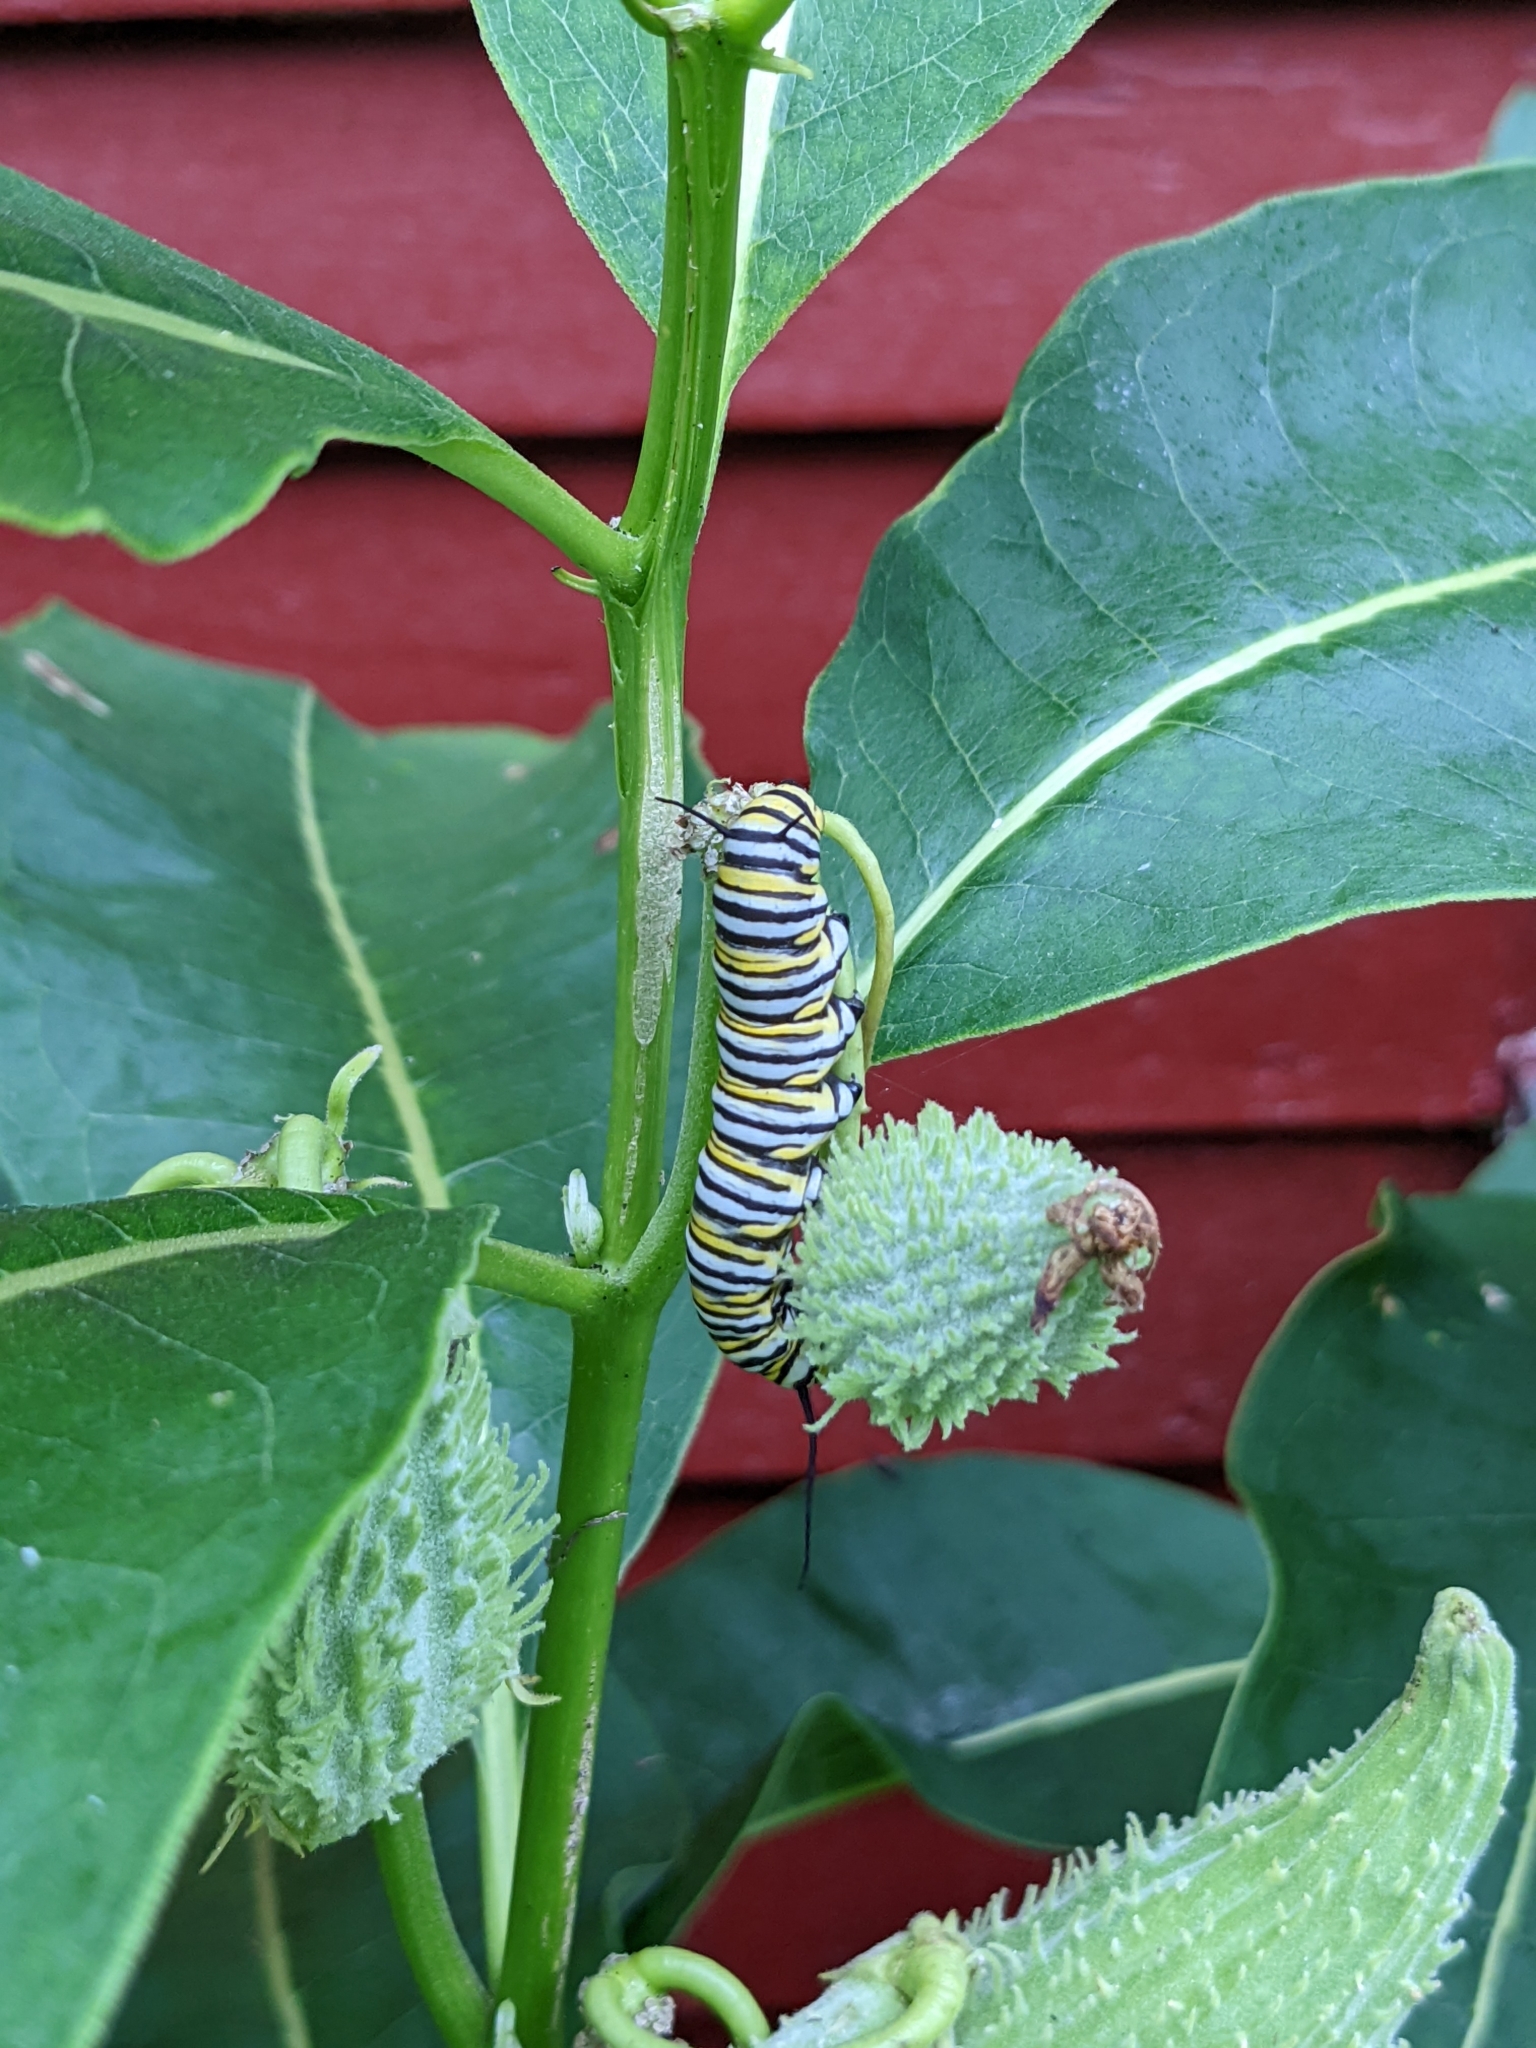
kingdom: Animalia
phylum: Arthropoda
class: Insecta
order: Lepidoptera
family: Nymphalidae
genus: Danaus
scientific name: Danaus plexippus
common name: Monarch
